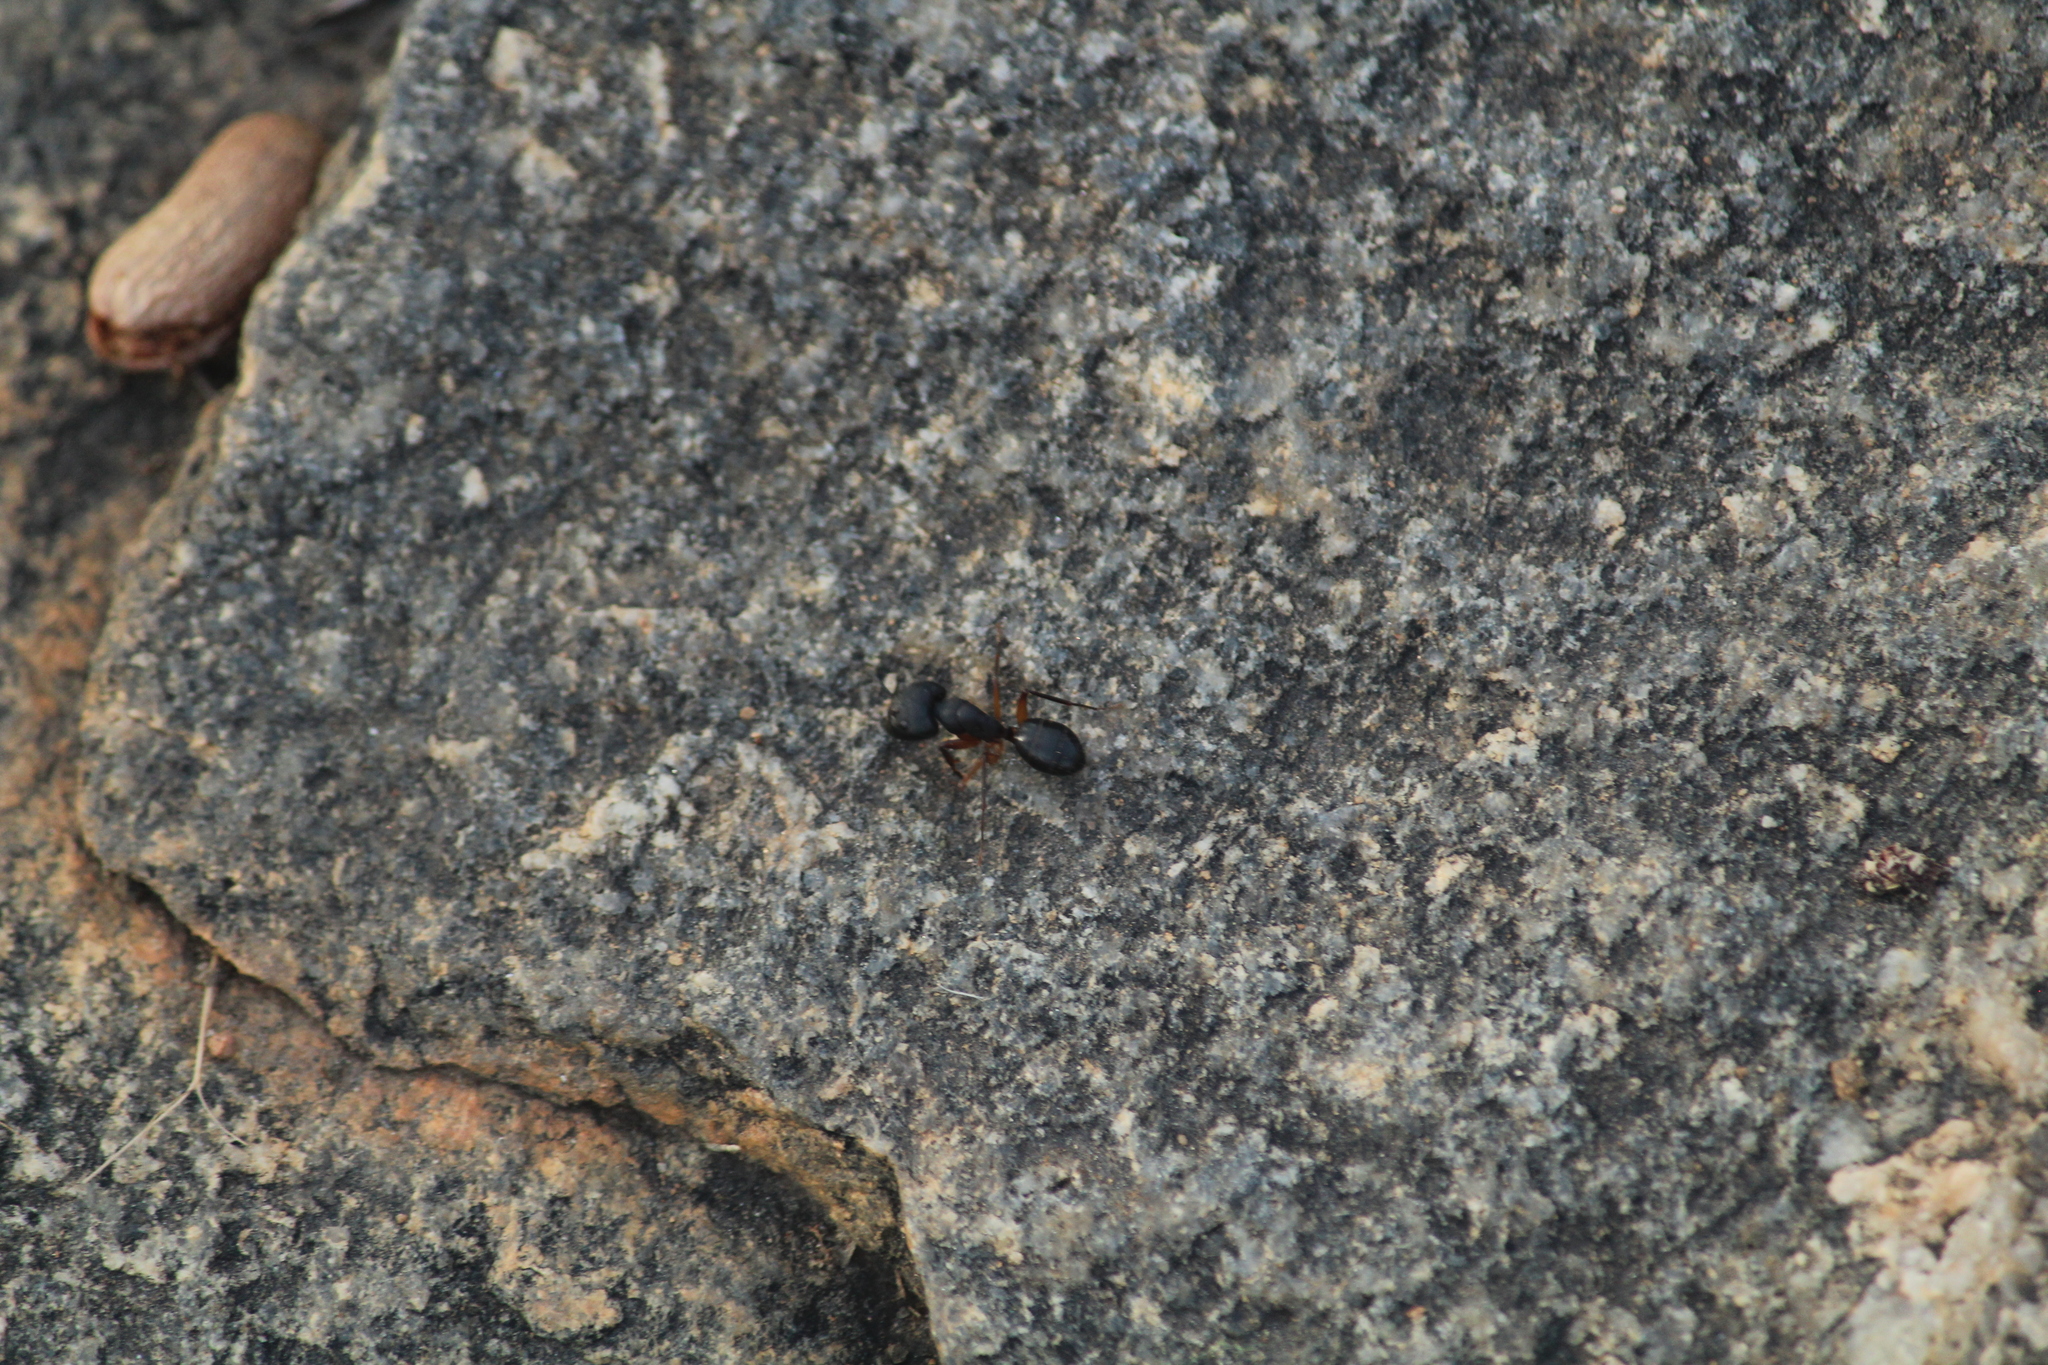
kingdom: Animalia
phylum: Arthropoda
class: Insecta
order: Hymenoptera
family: Formicidae
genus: Camponotus
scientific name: Camponotus compressus
